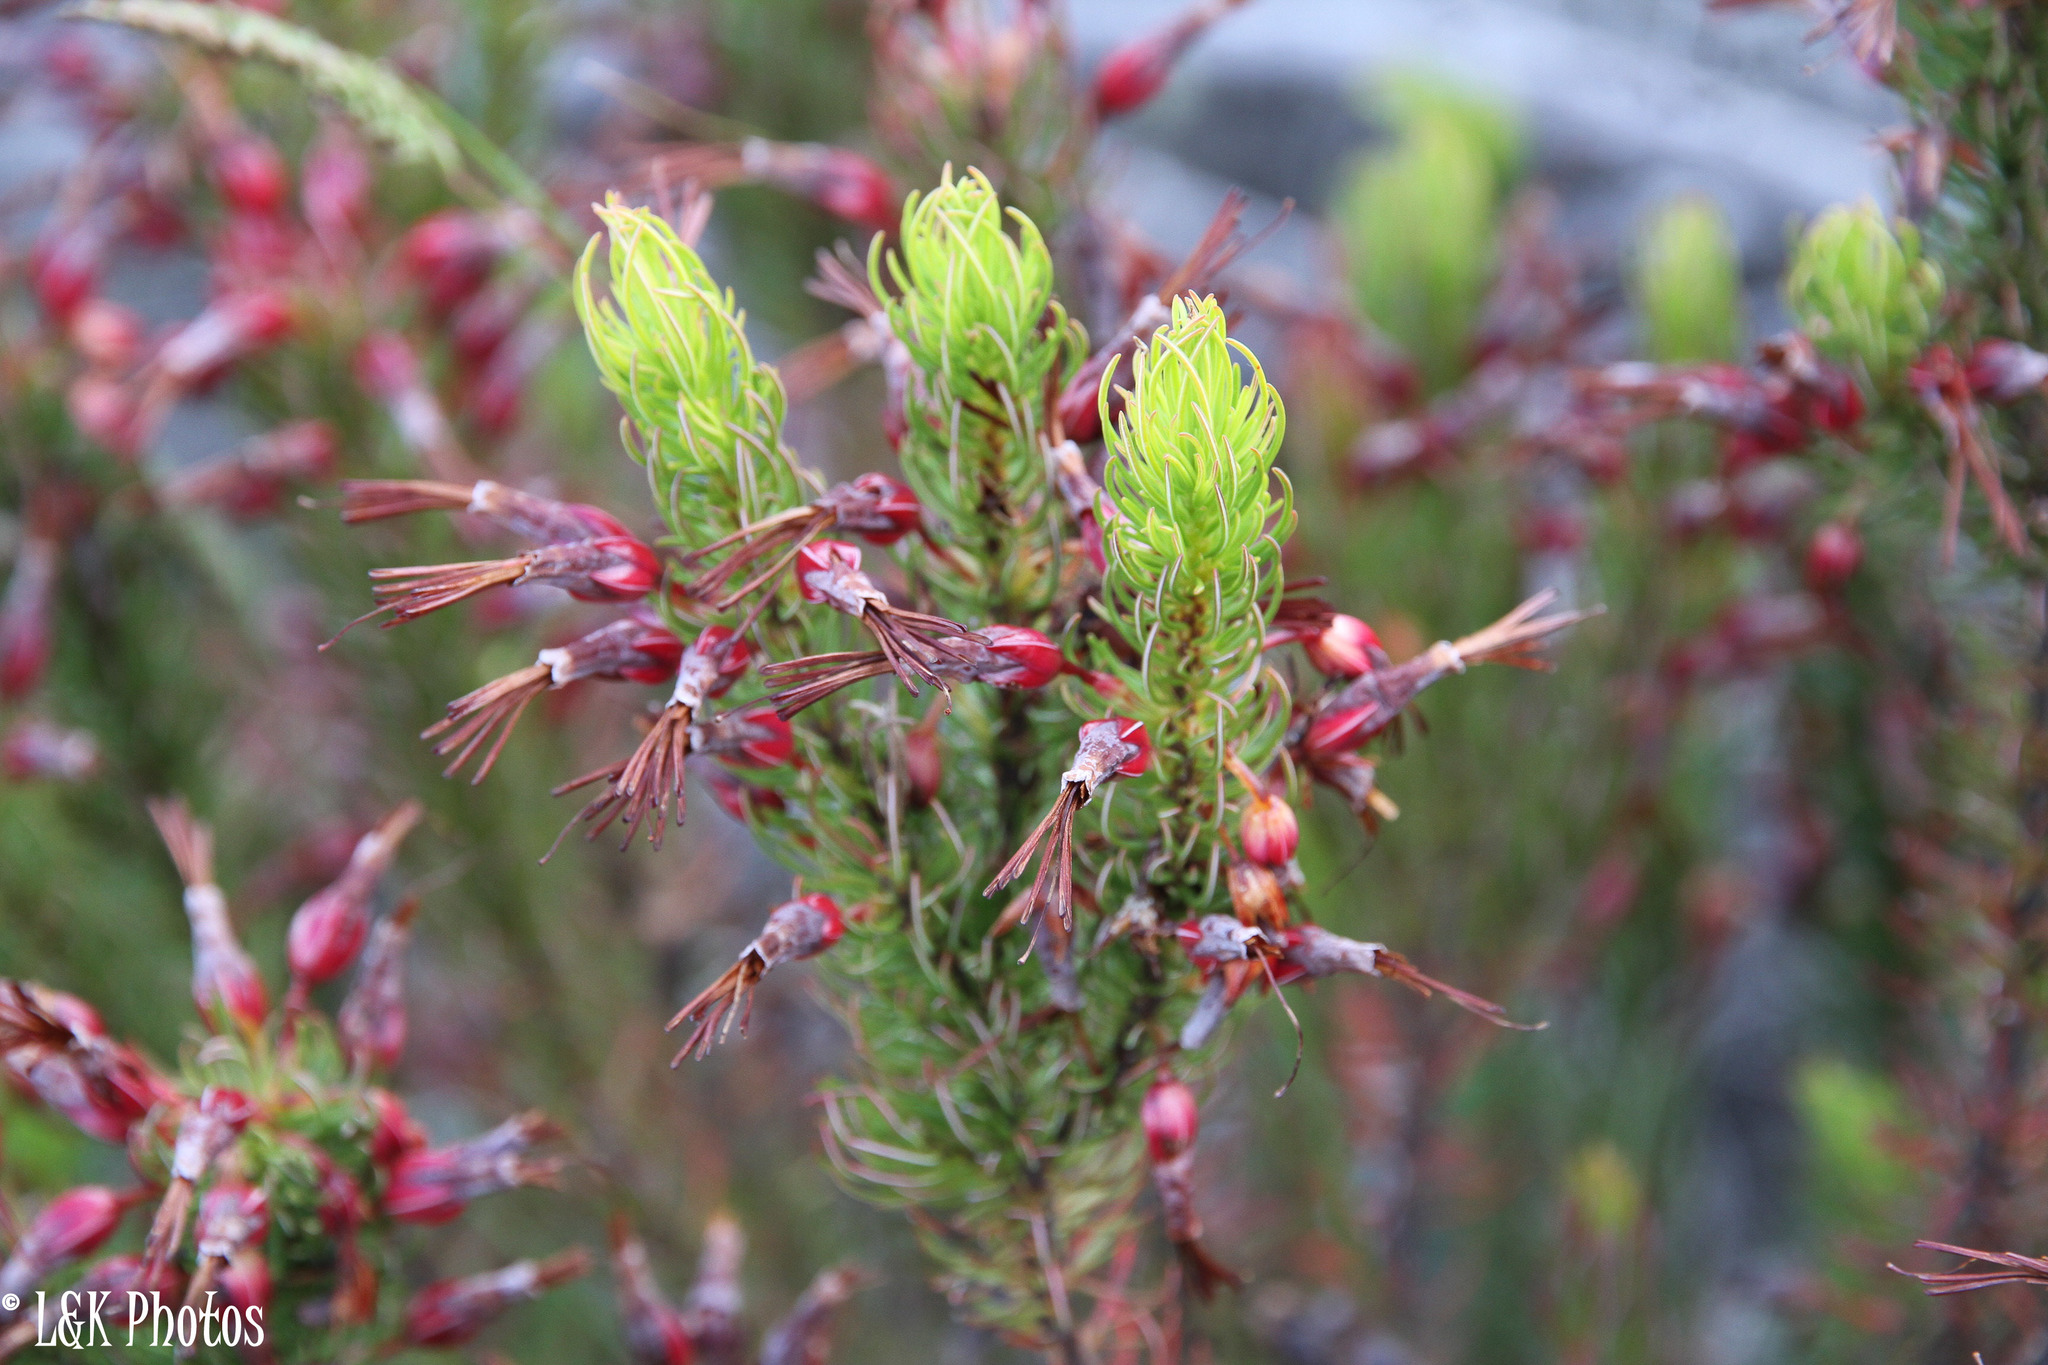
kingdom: Plantae
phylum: Tracheophyta
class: Magnoliopsida
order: Ericales
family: Ericaceae
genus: Erica
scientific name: Erica plukenetii
